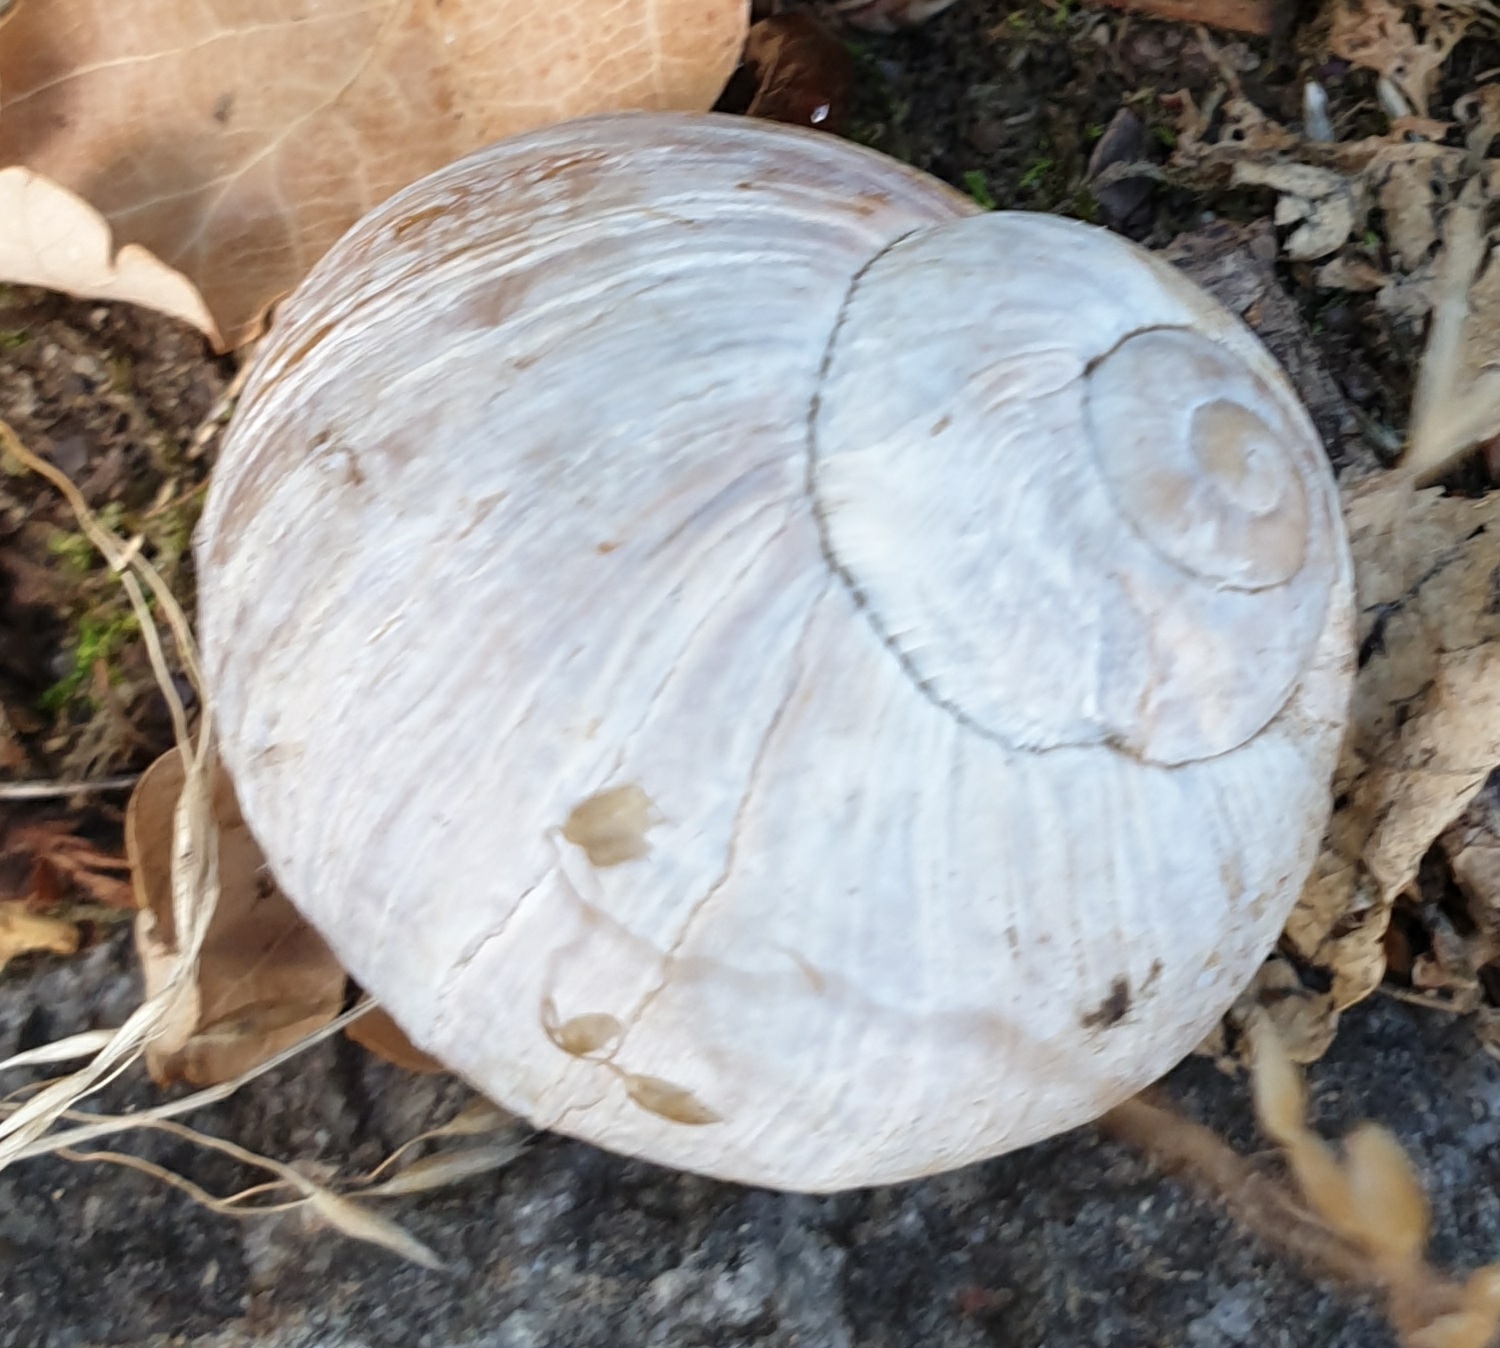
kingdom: Animalia
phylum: Mollusca
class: Gastropoda
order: Stylommatophora
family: Helicidae
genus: Helix
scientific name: Helix pomatia
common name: Roman snail
